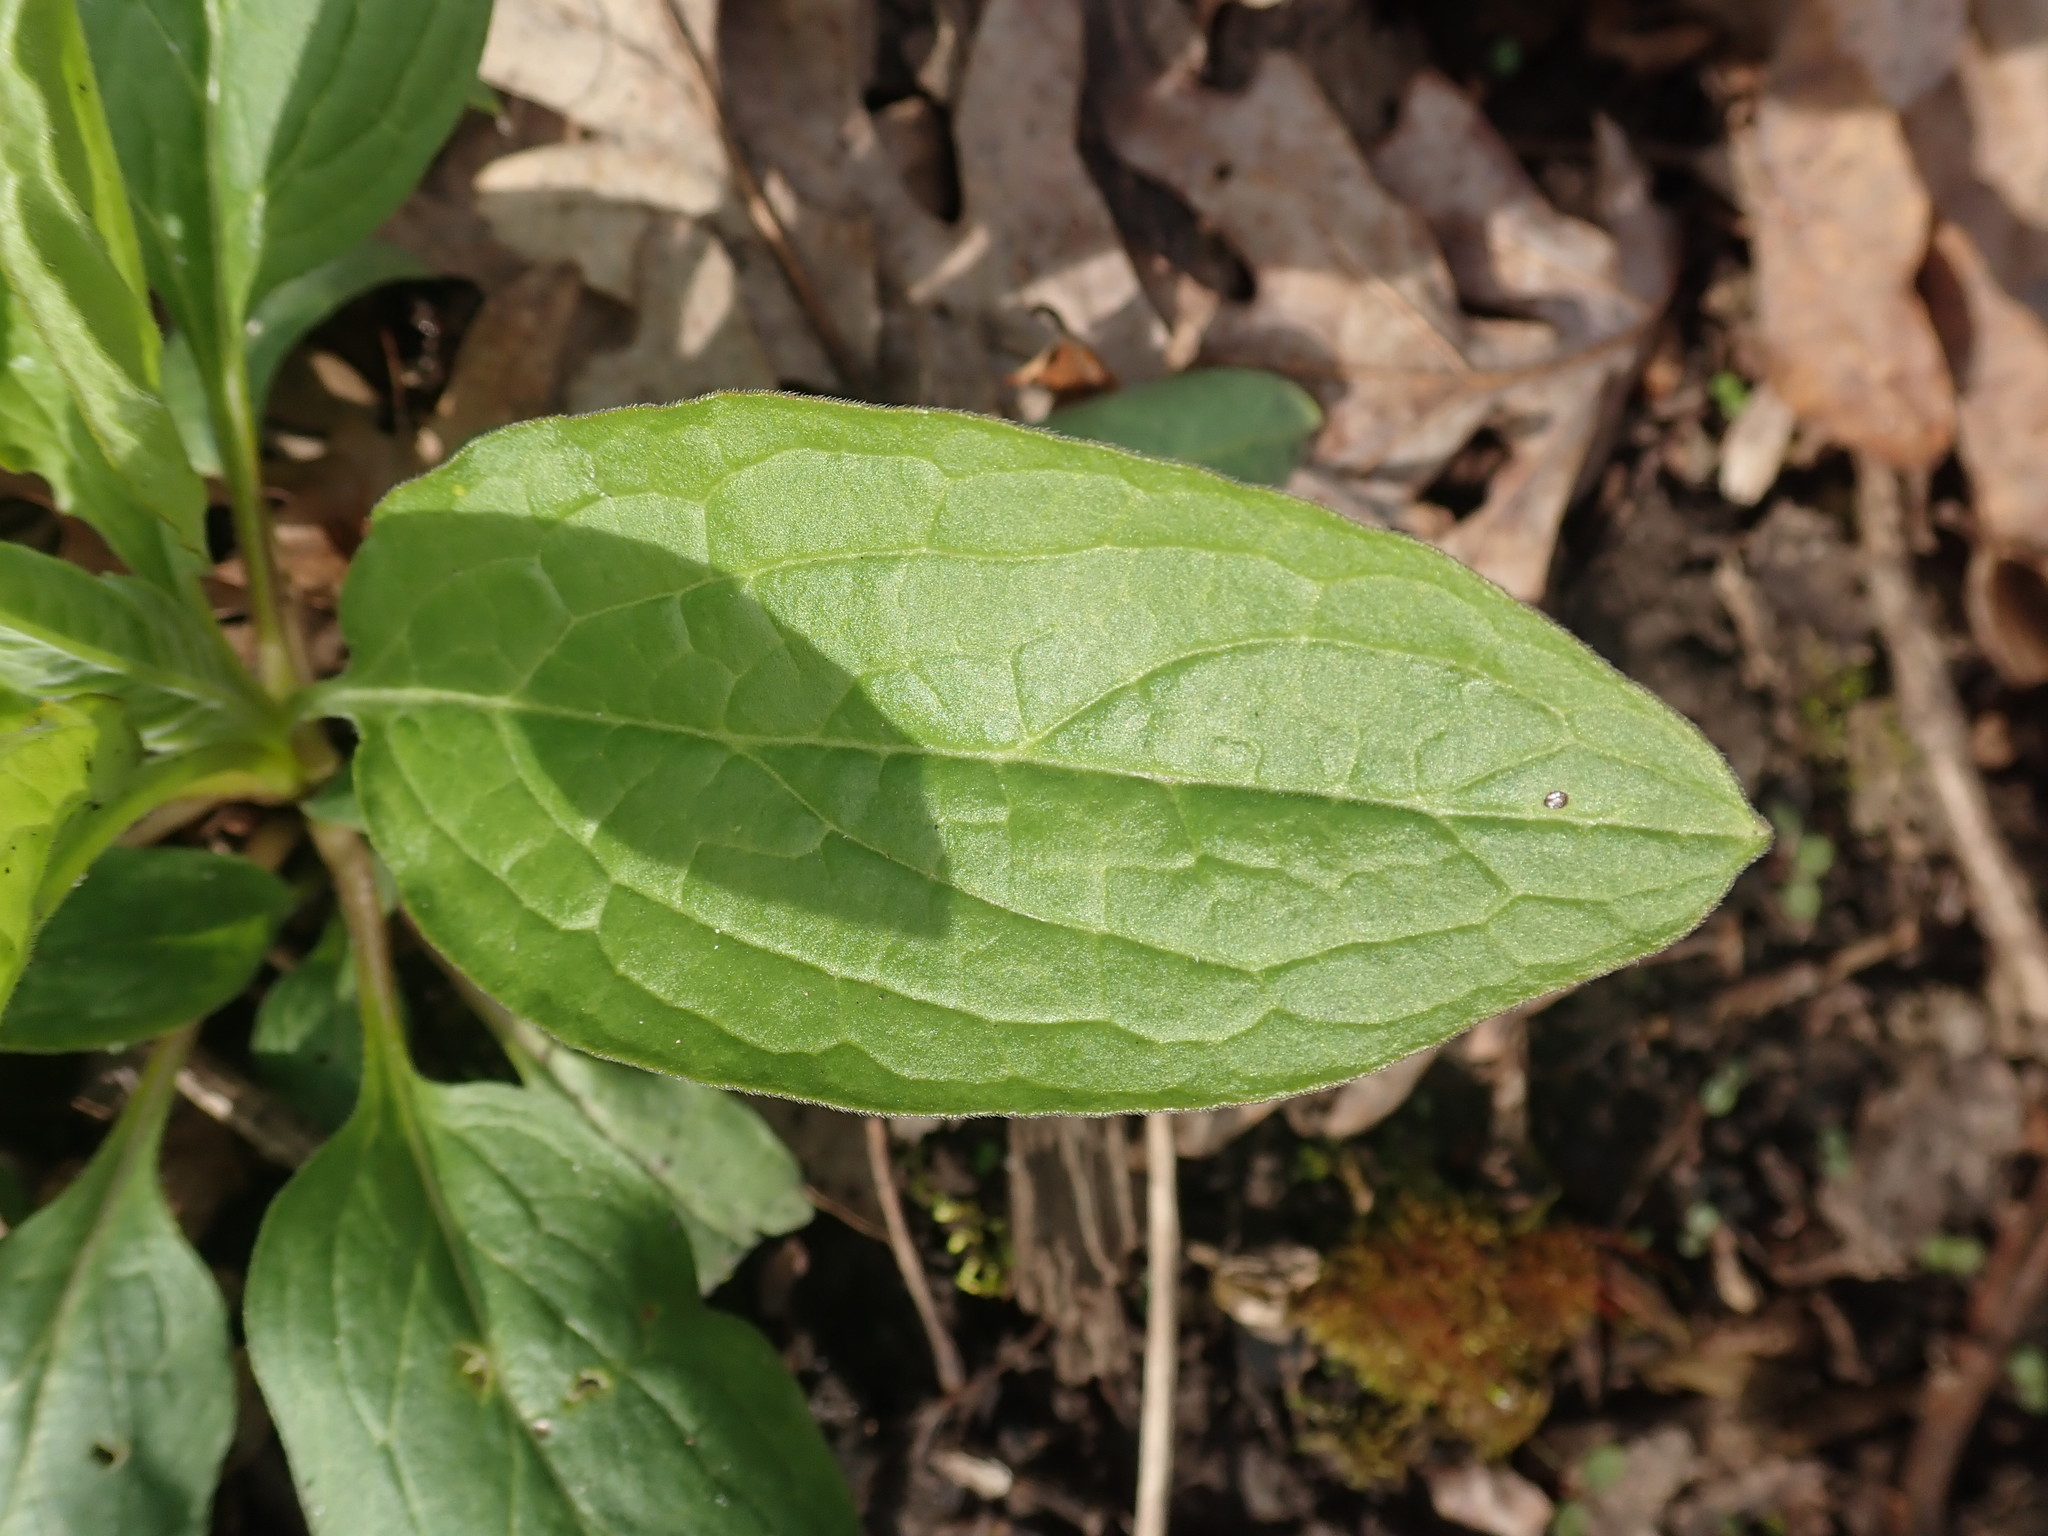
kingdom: Plantae
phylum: Tracheophyta
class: Magnoliopsida
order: Boraginales
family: Boraginaceae
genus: Hackelia
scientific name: Hackelia virginiana
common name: Beggar's-lice
